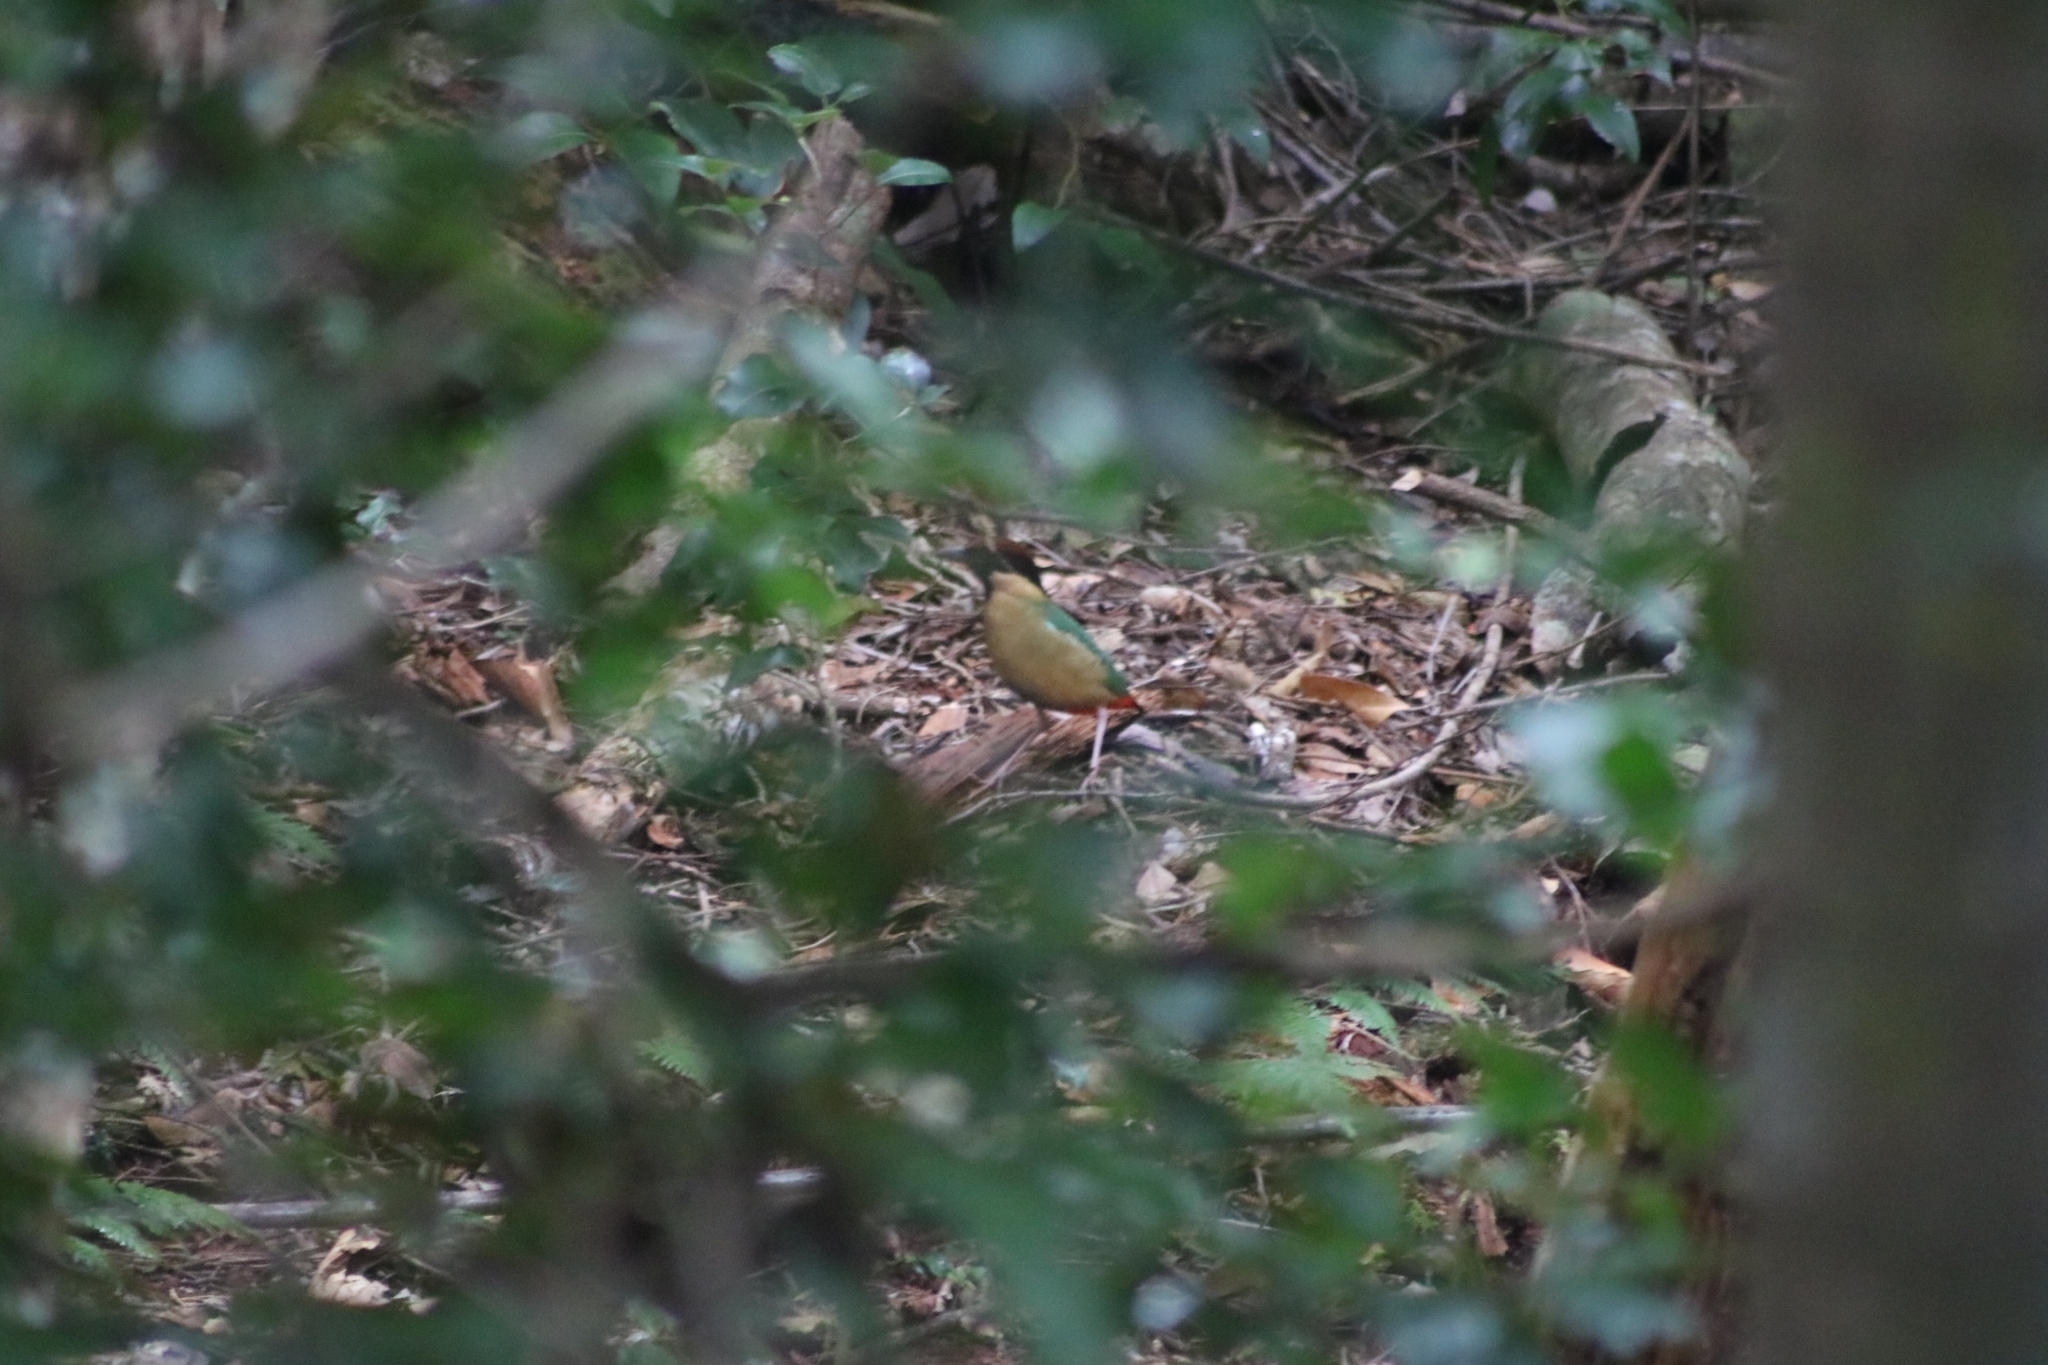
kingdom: Animalia
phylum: Chordata
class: Aves
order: Passeriformes
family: Pittidae
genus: Pitta
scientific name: Pitta versicolor
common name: Noisy pitta
